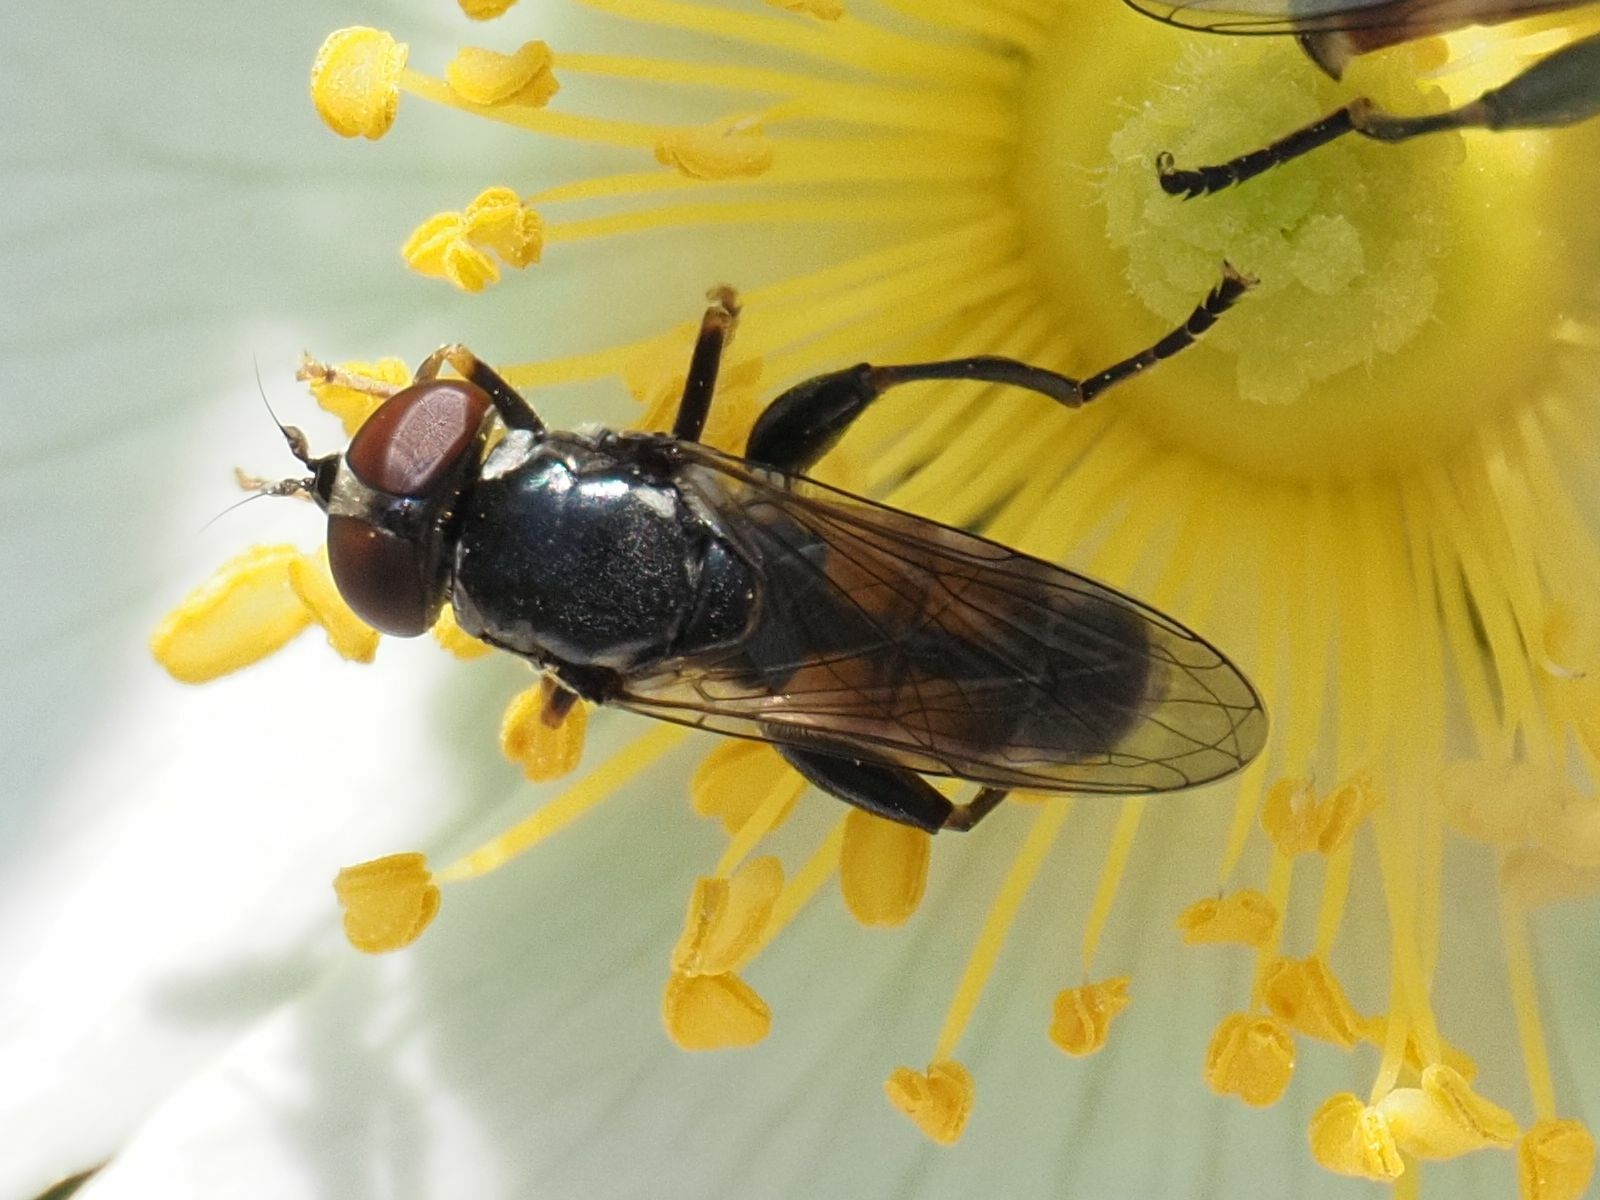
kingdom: Animalia
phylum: Arthropoda
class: Insecta
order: Diptera
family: Syrphidae
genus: Tropidia
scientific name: Tropidia scita
